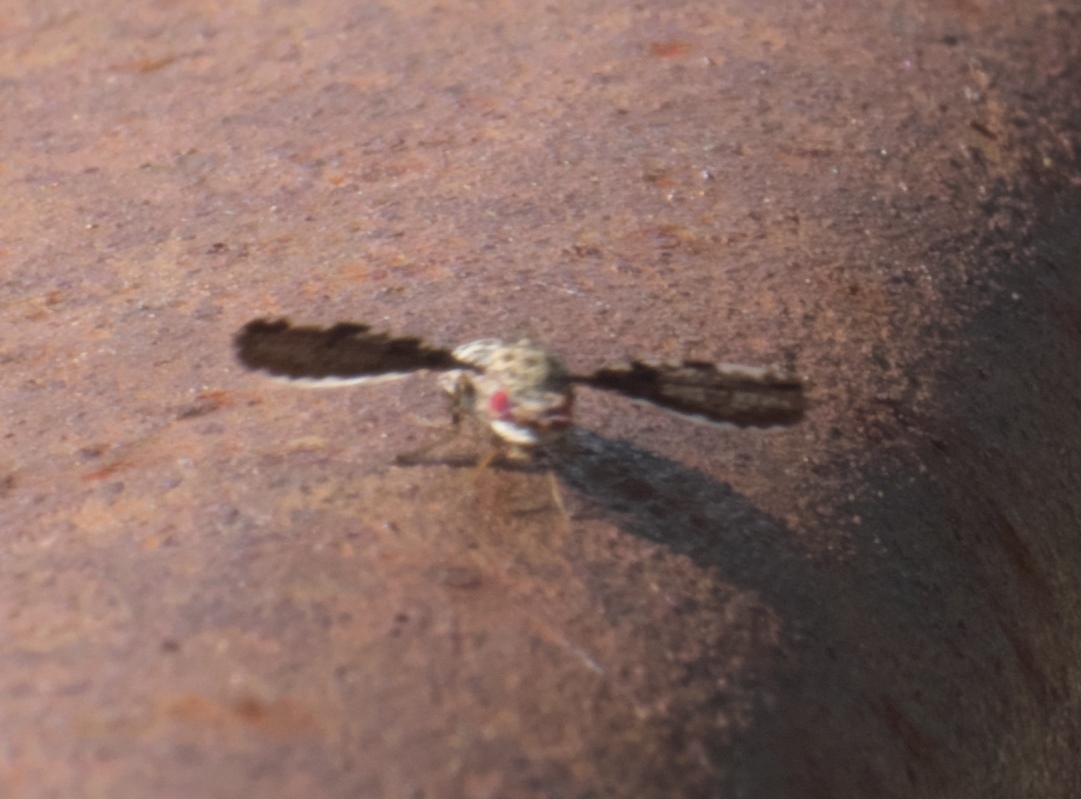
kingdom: Animalia
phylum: Arthropoda
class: Insecta
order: Diptera
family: Ulidiidae
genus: Callopistromyia
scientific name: Callopistromyia strigula
